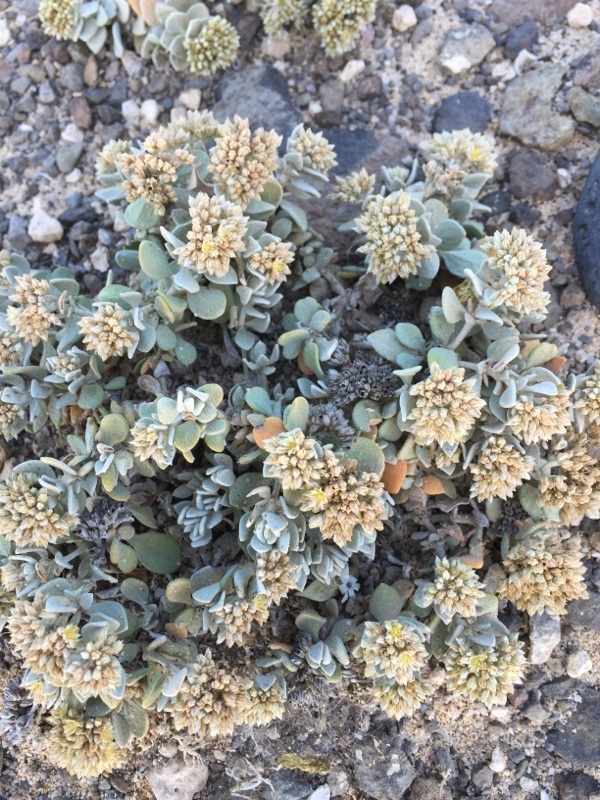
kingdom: Plantae
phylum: Tracheophyta
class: Magnoliopsida
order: Caryophyllales
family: Caryophyllaceae
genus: Polycarpaea
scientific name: Polycarpaea nivea
